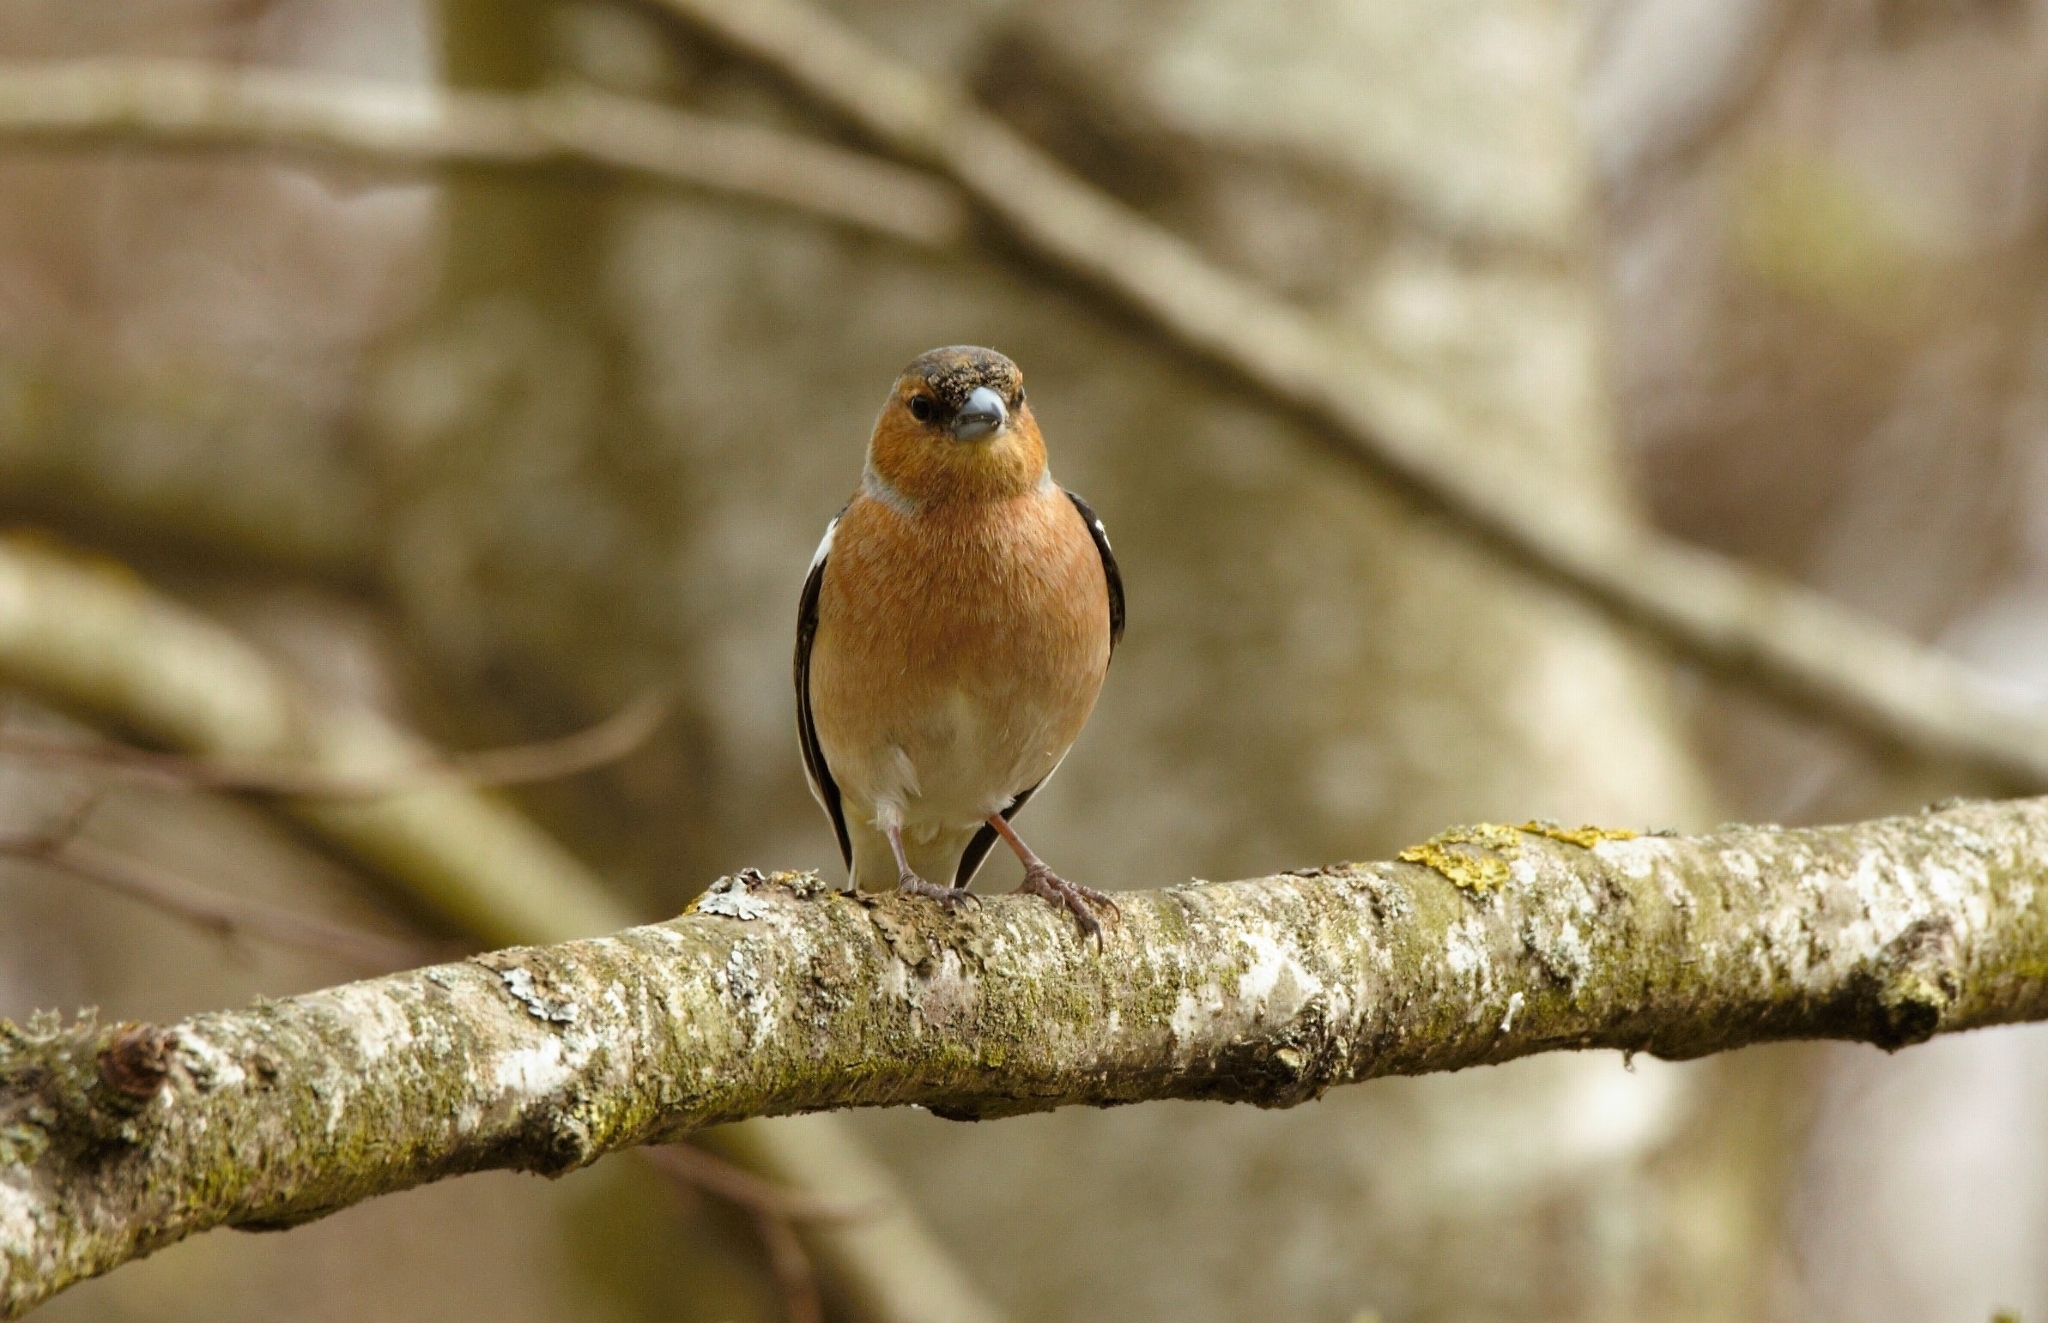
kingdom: Animalia
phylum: Chordata
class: Aves
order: Passeriformes
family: Fringillidae
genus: Fringilla
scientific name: Fringilla coelebs
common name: Common chaffinch
